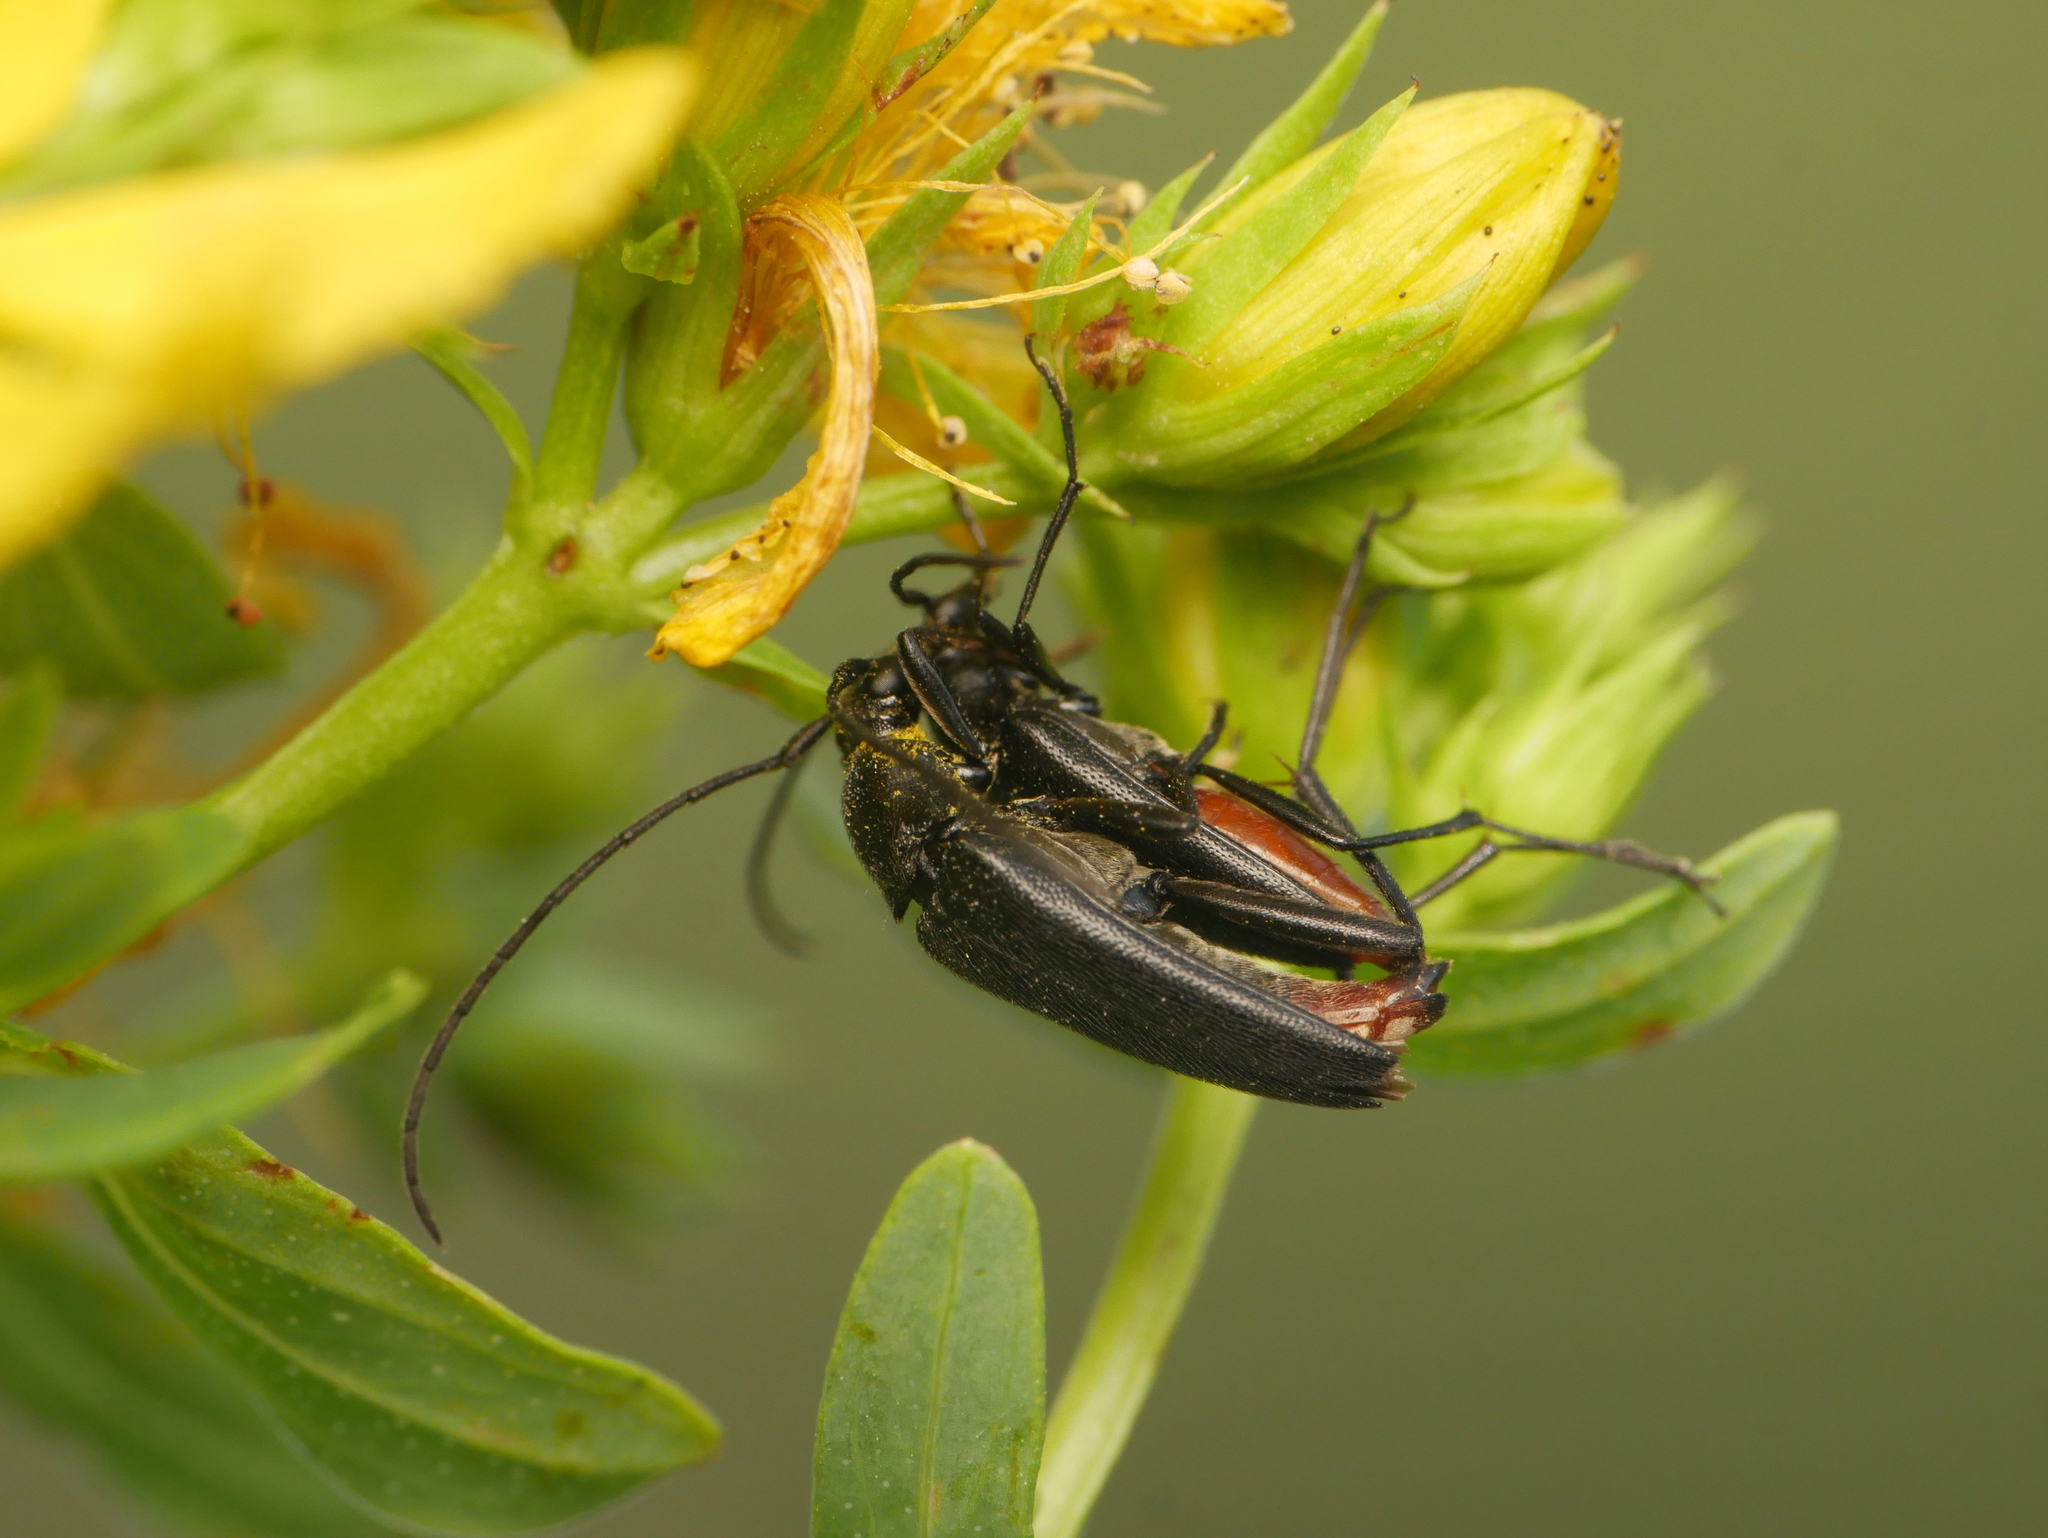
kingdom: Animalia
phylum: Arthropoda
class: Insecta
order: Coleoptera
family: Cerambycidae
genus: Stenurella
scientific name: Stenurella nigra
